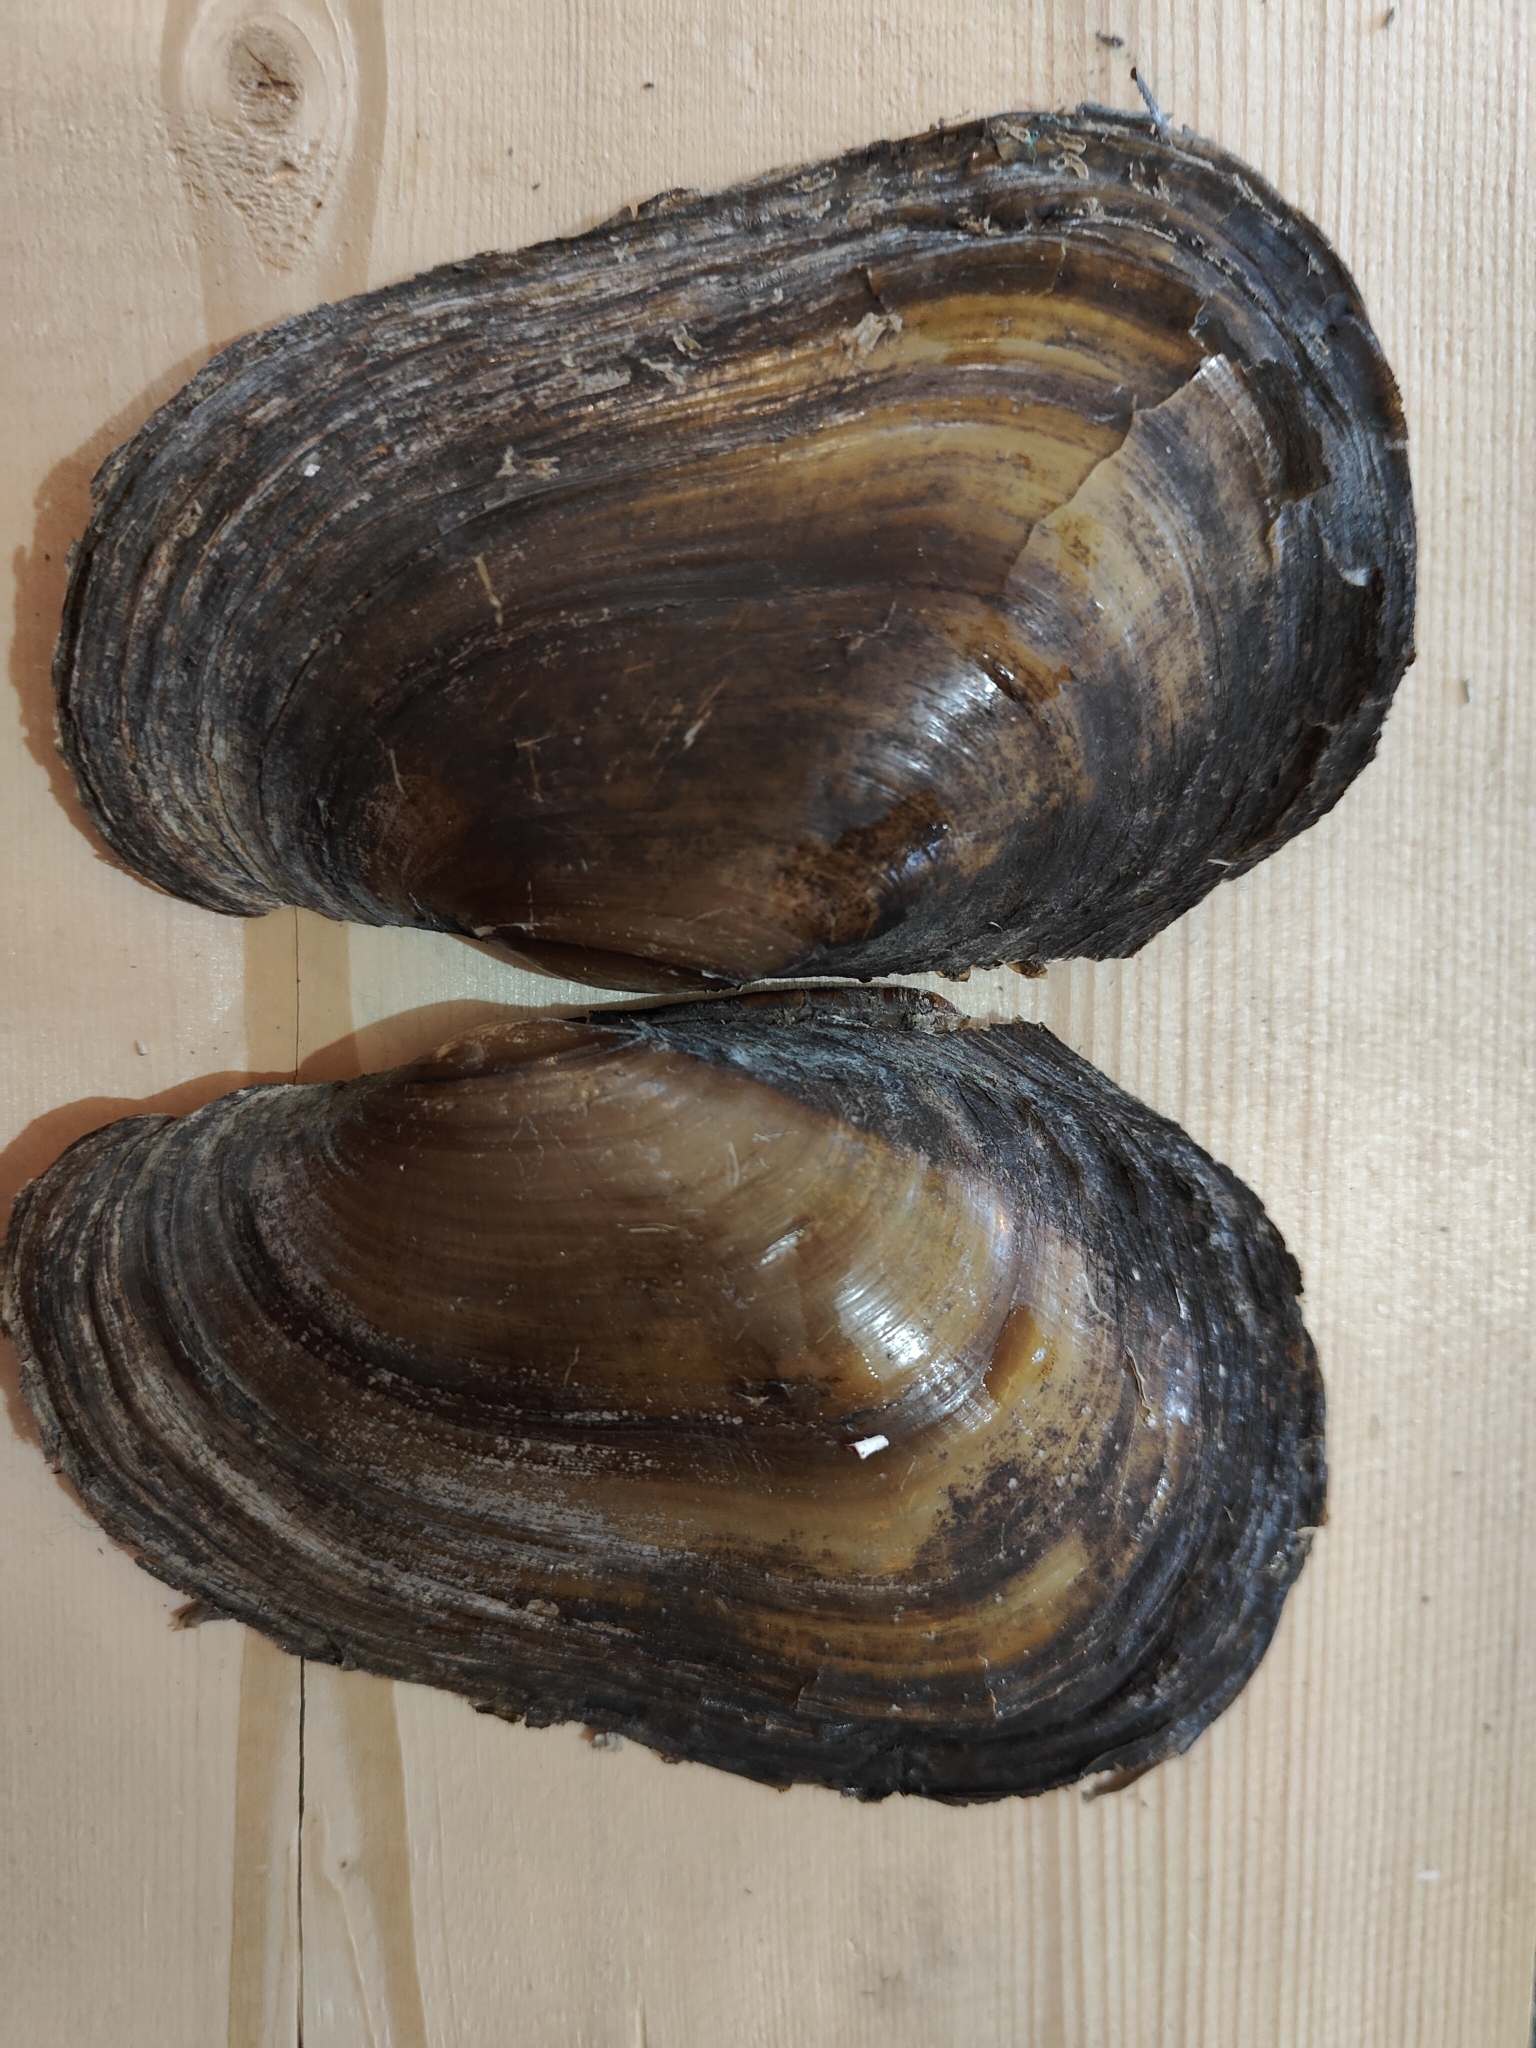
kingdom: Animalia
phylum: Mollusca
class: Bivalvia
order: Unionida
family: Unionidae
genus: Potamilus
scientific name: Potamilus fragilis
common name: Fragile papershell
